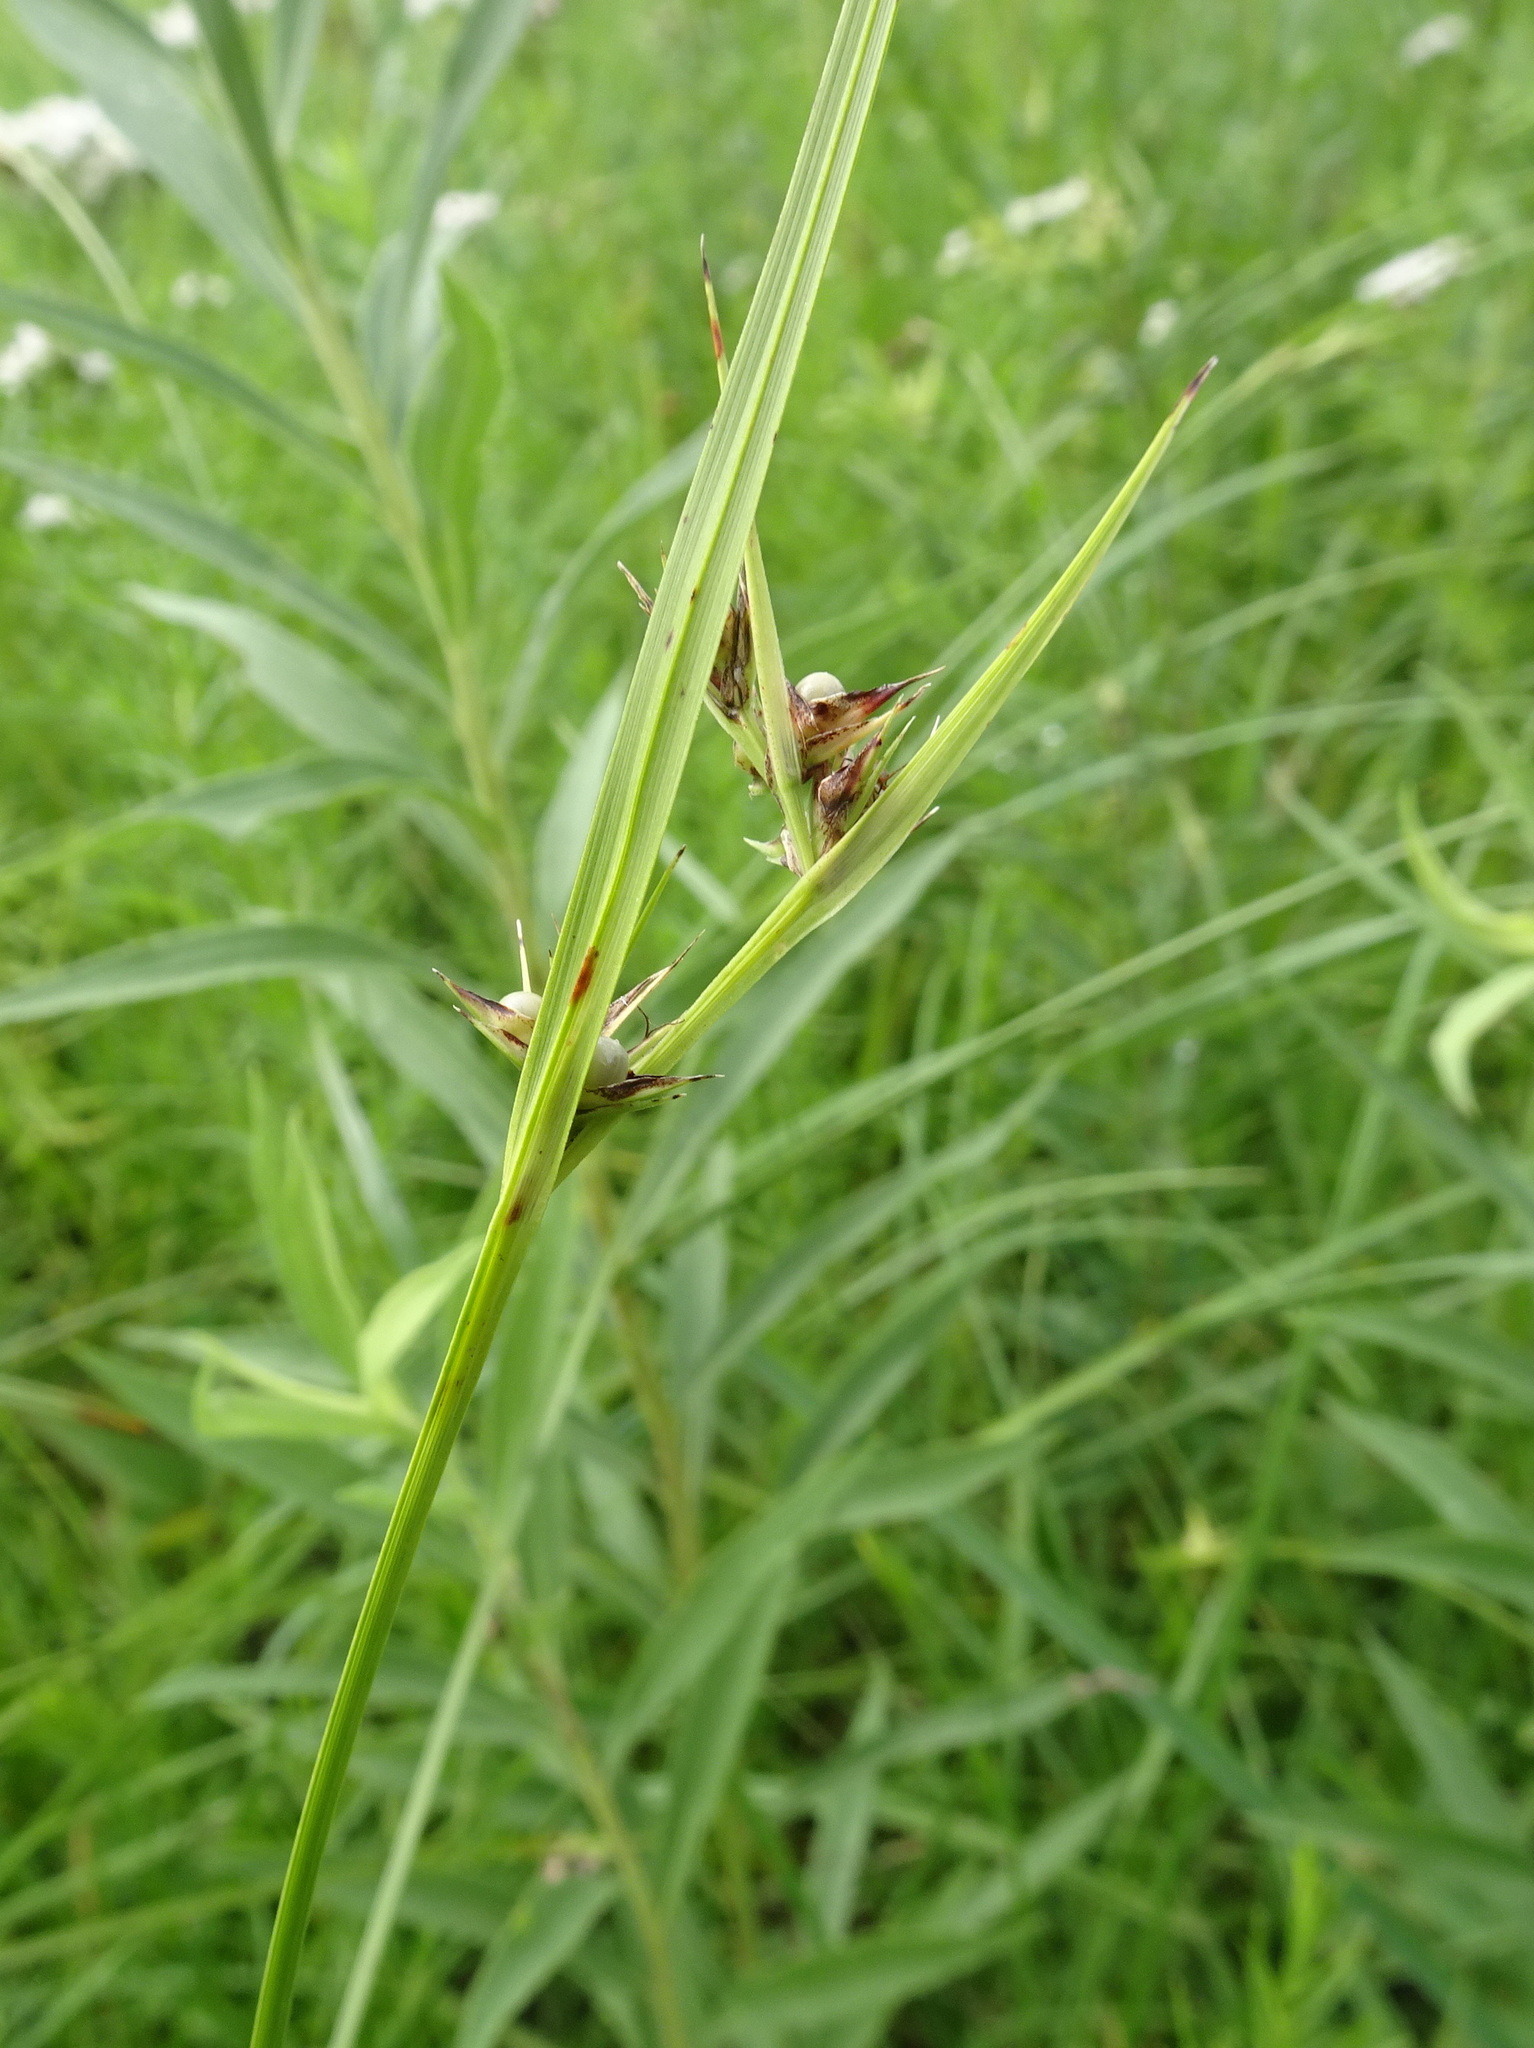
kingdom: Plantae
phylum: Tracheophyta
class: Liliopsida
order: Poales
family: Cyperaceae
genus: Scleria
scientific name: Scleria triglomerata
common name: Whip nutrush
